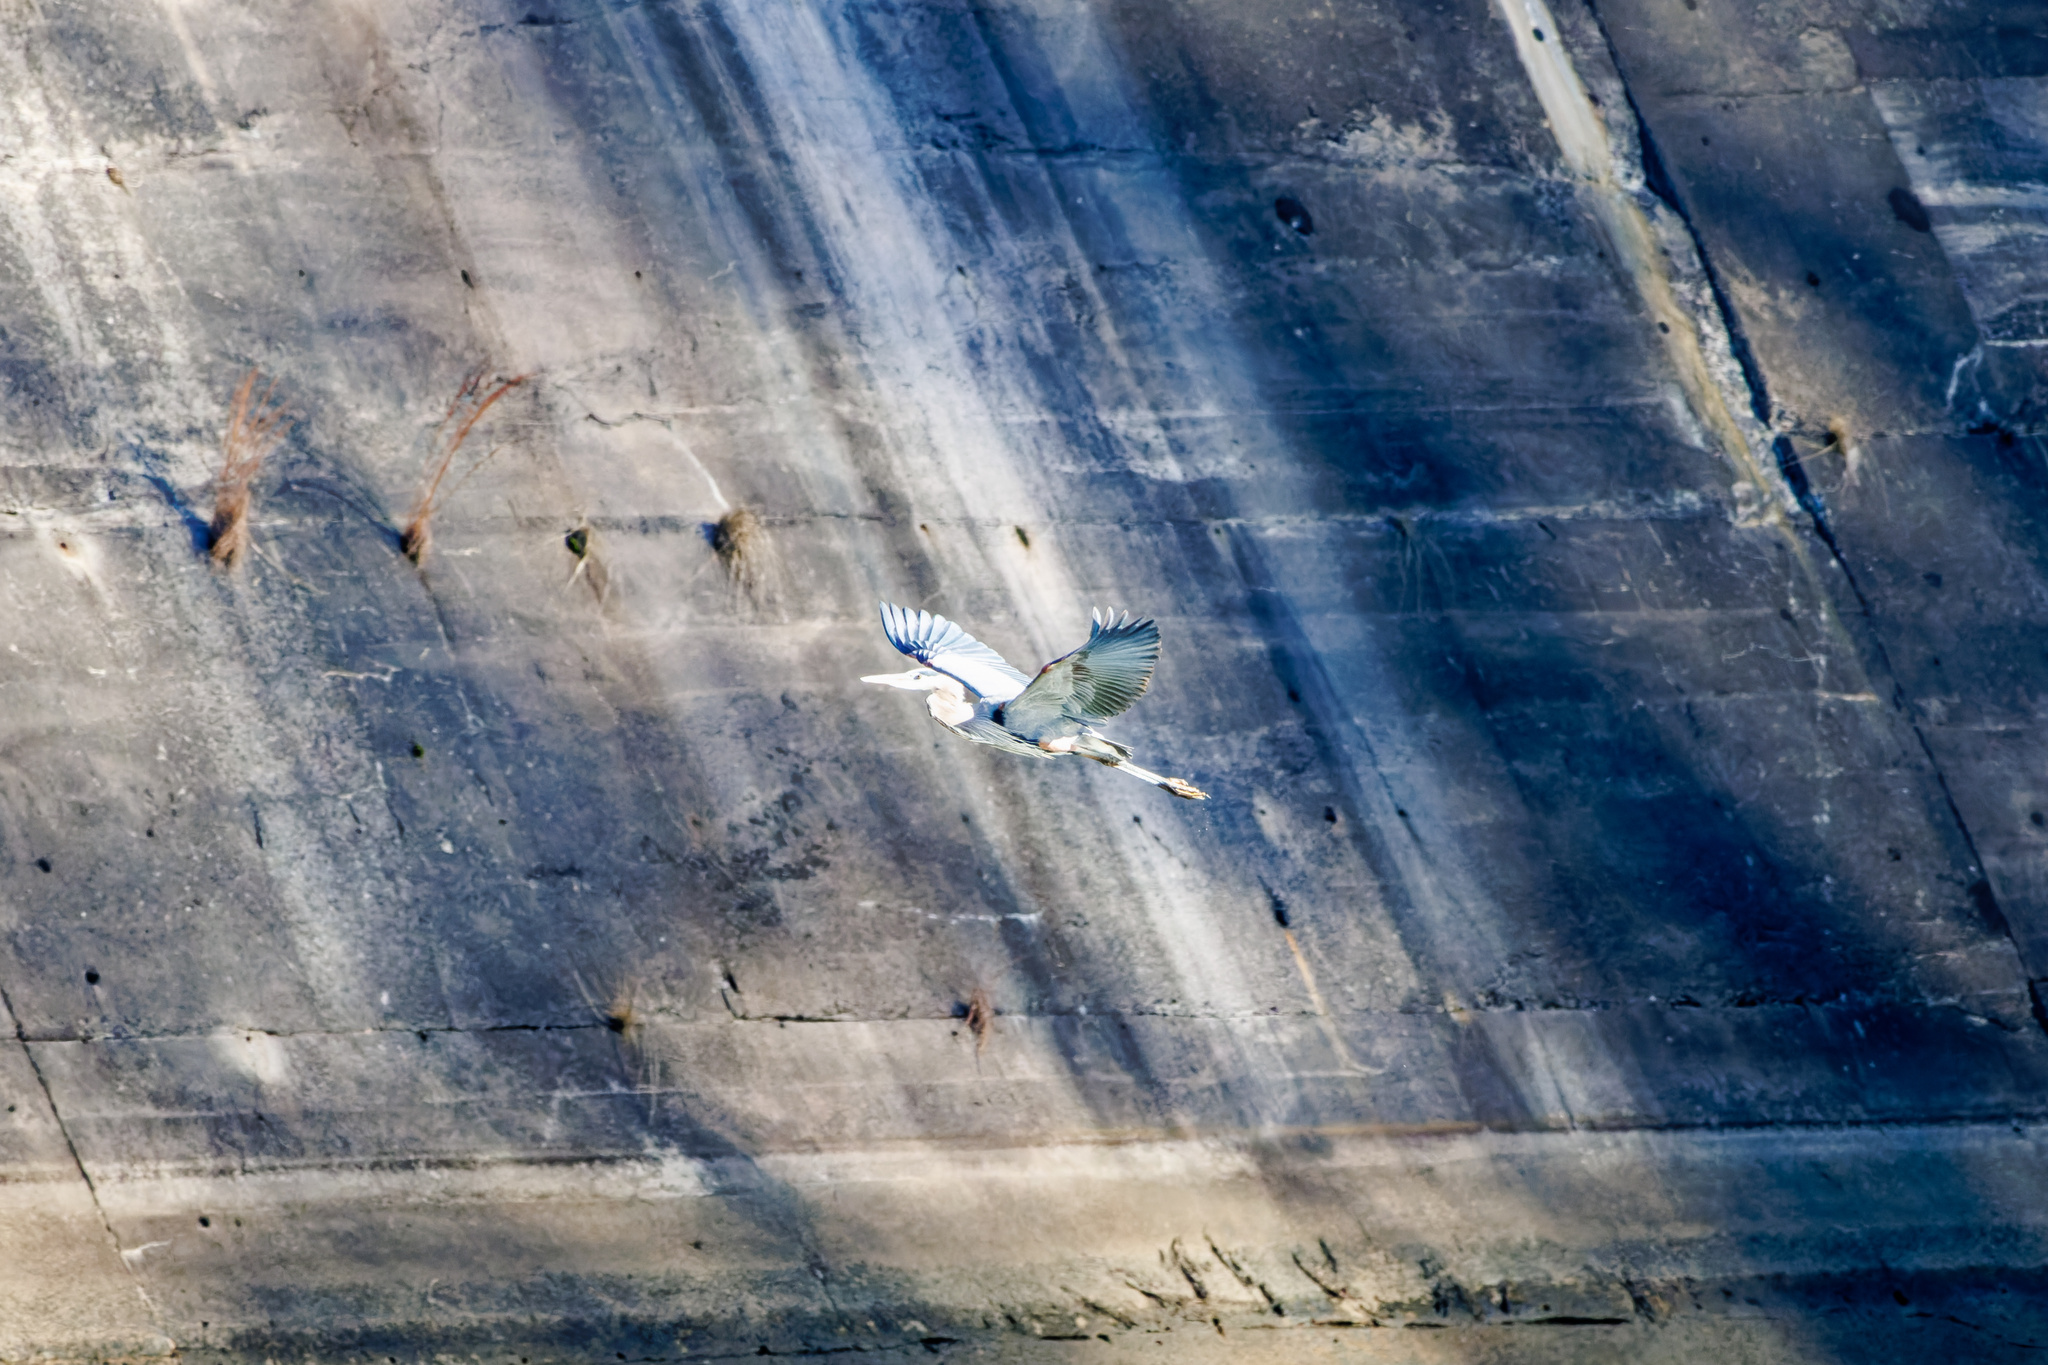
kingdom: Animalia
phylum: Chordata
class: Aves
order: Pelecaniformes
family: Ardeidae
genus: Ardea
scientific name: Ardea herodias
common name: Great blue heron
